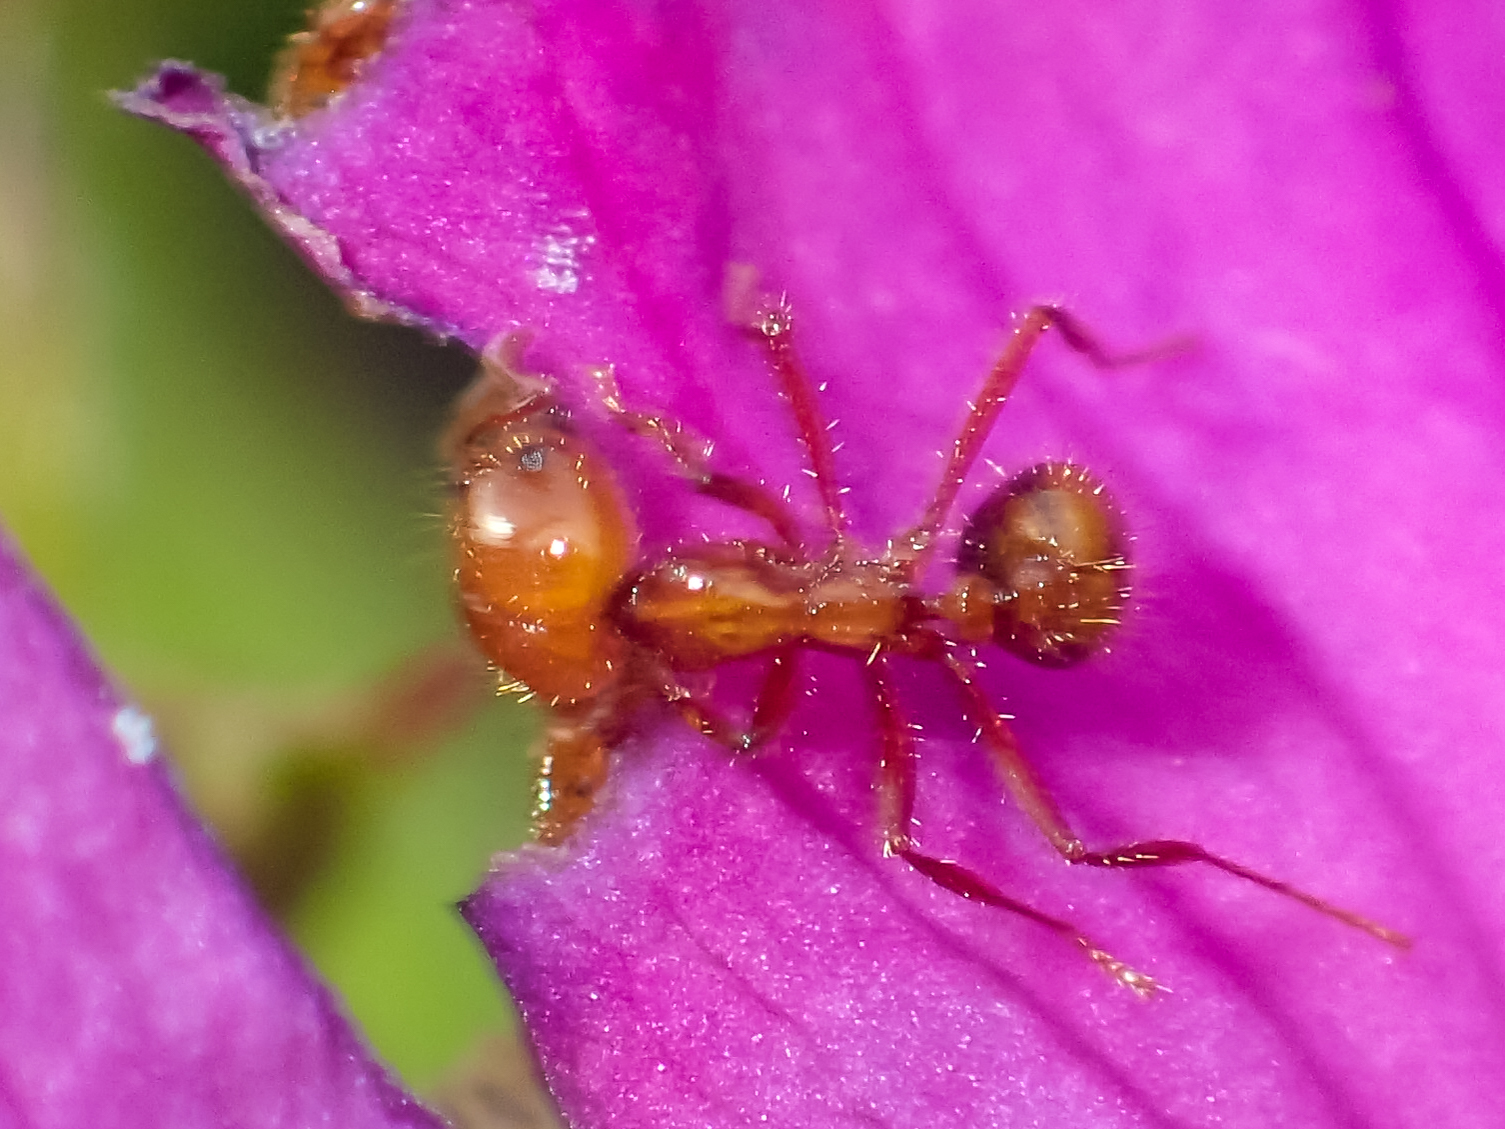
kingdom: Animalia
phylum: Arthropoda
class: Insecta
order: Hymenoptera
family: Formicidae
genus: Solenopsis
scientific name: Solenopsis geminata
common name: Tropical fire ant
